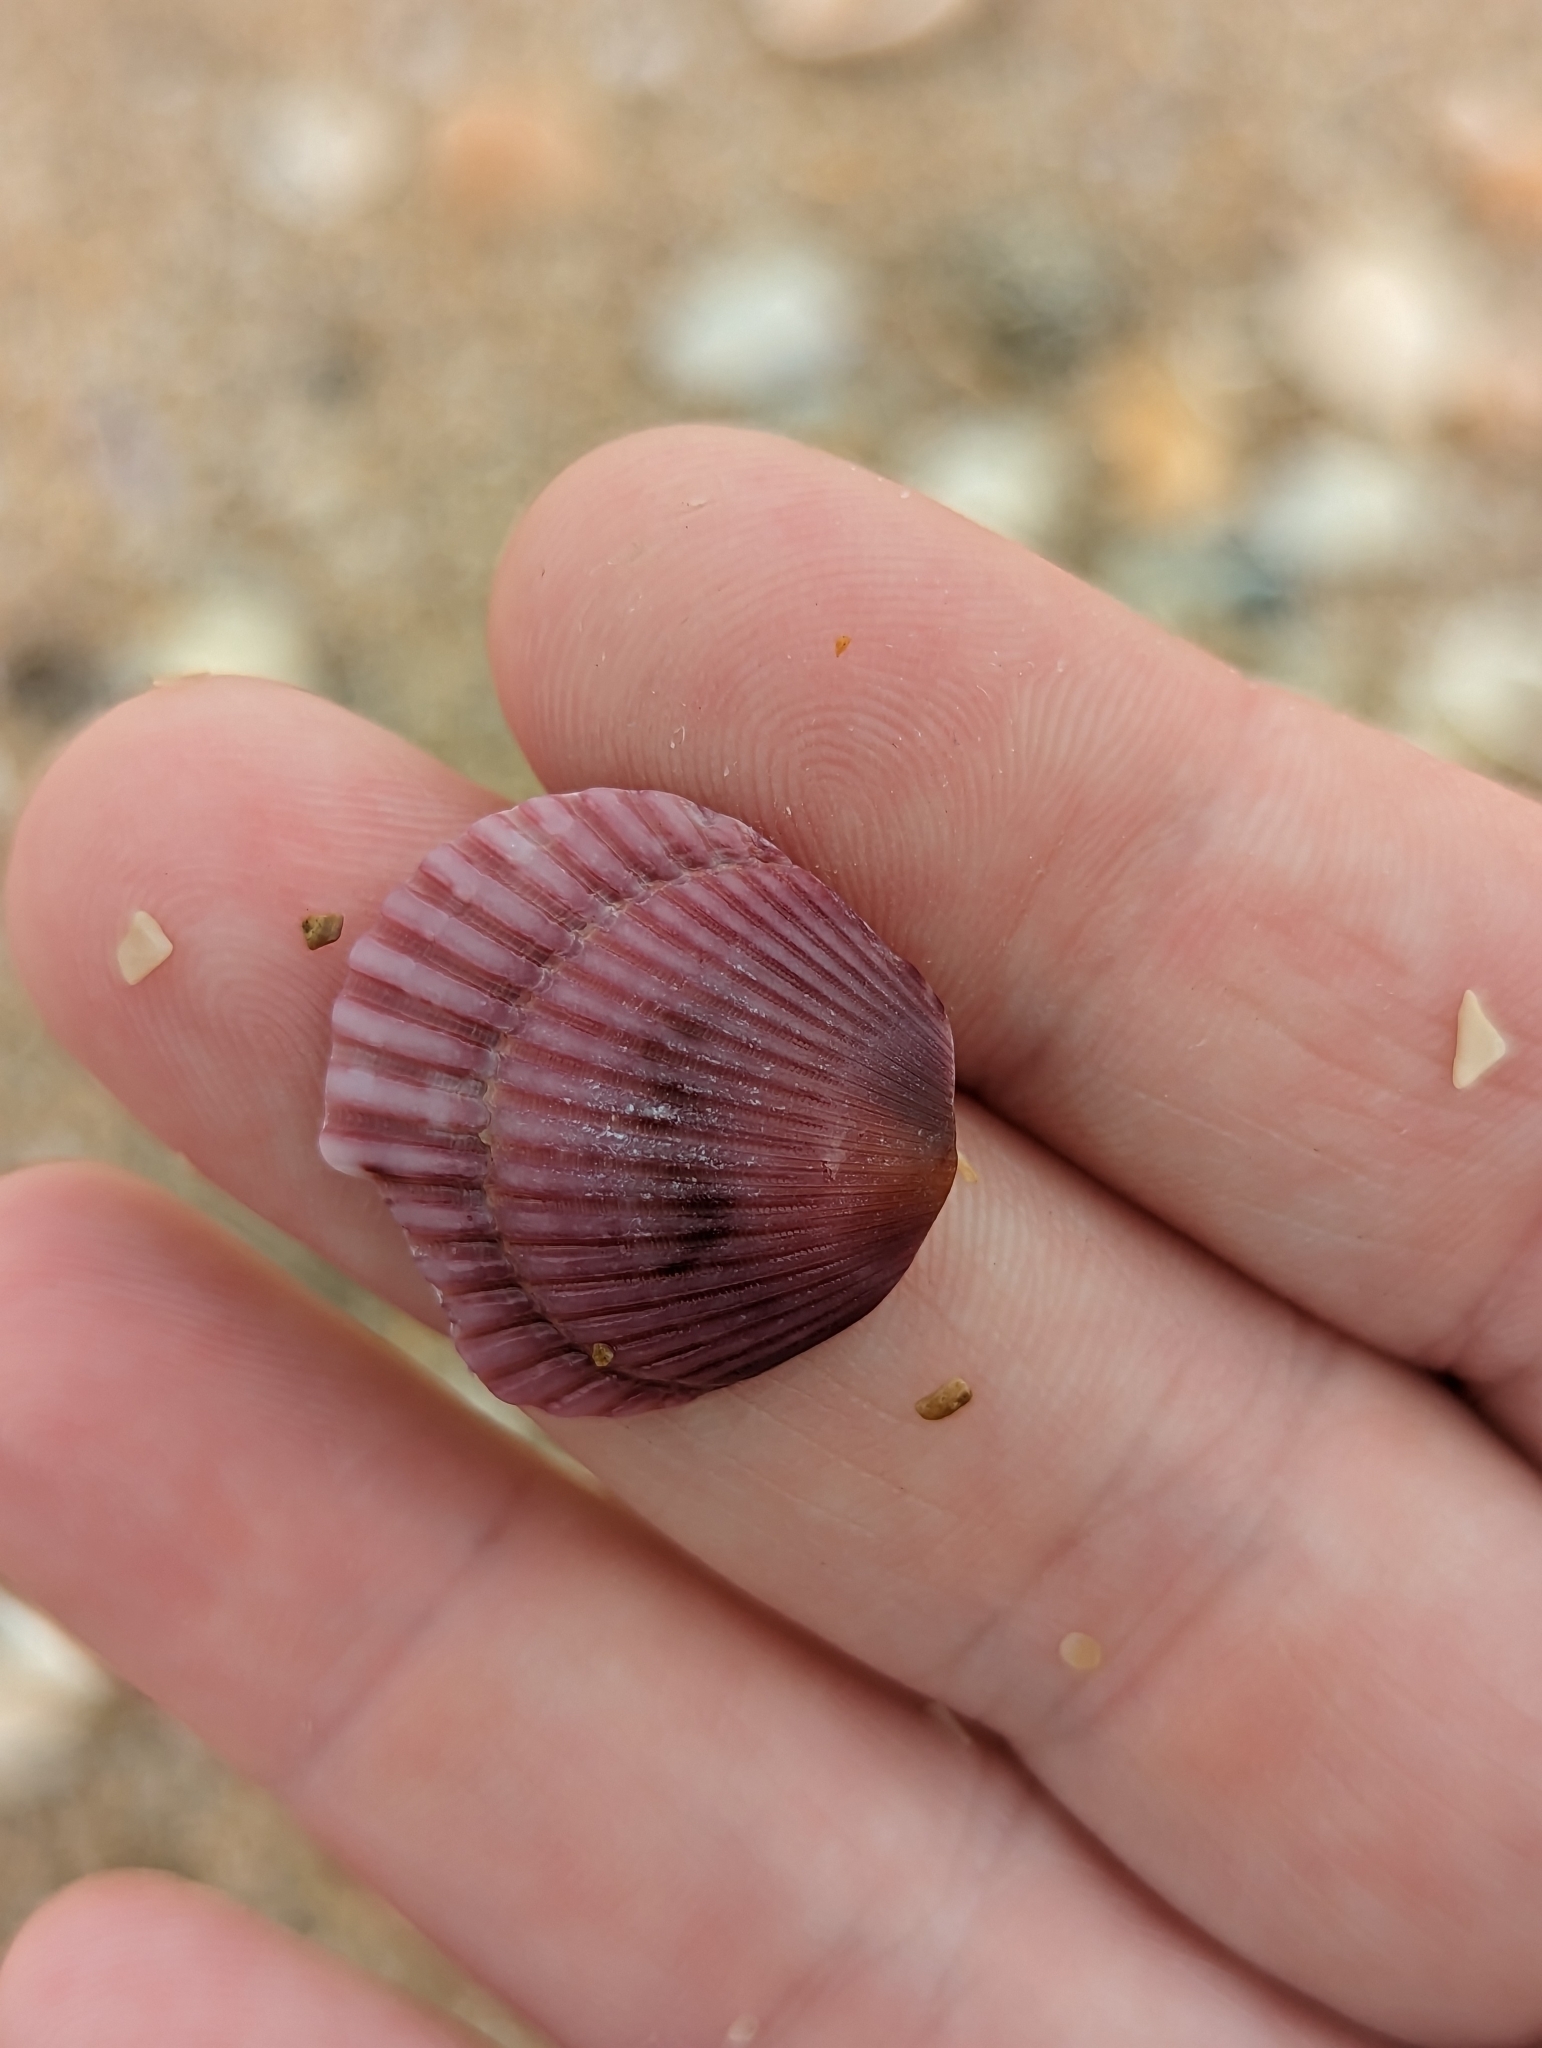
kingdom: Animalia
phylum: Mollusca
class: Bivalvia
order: Pectinida
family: Pectinidae
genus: Argopecten
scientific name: Argopecten gibbus
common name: Atlantic calico scallop
